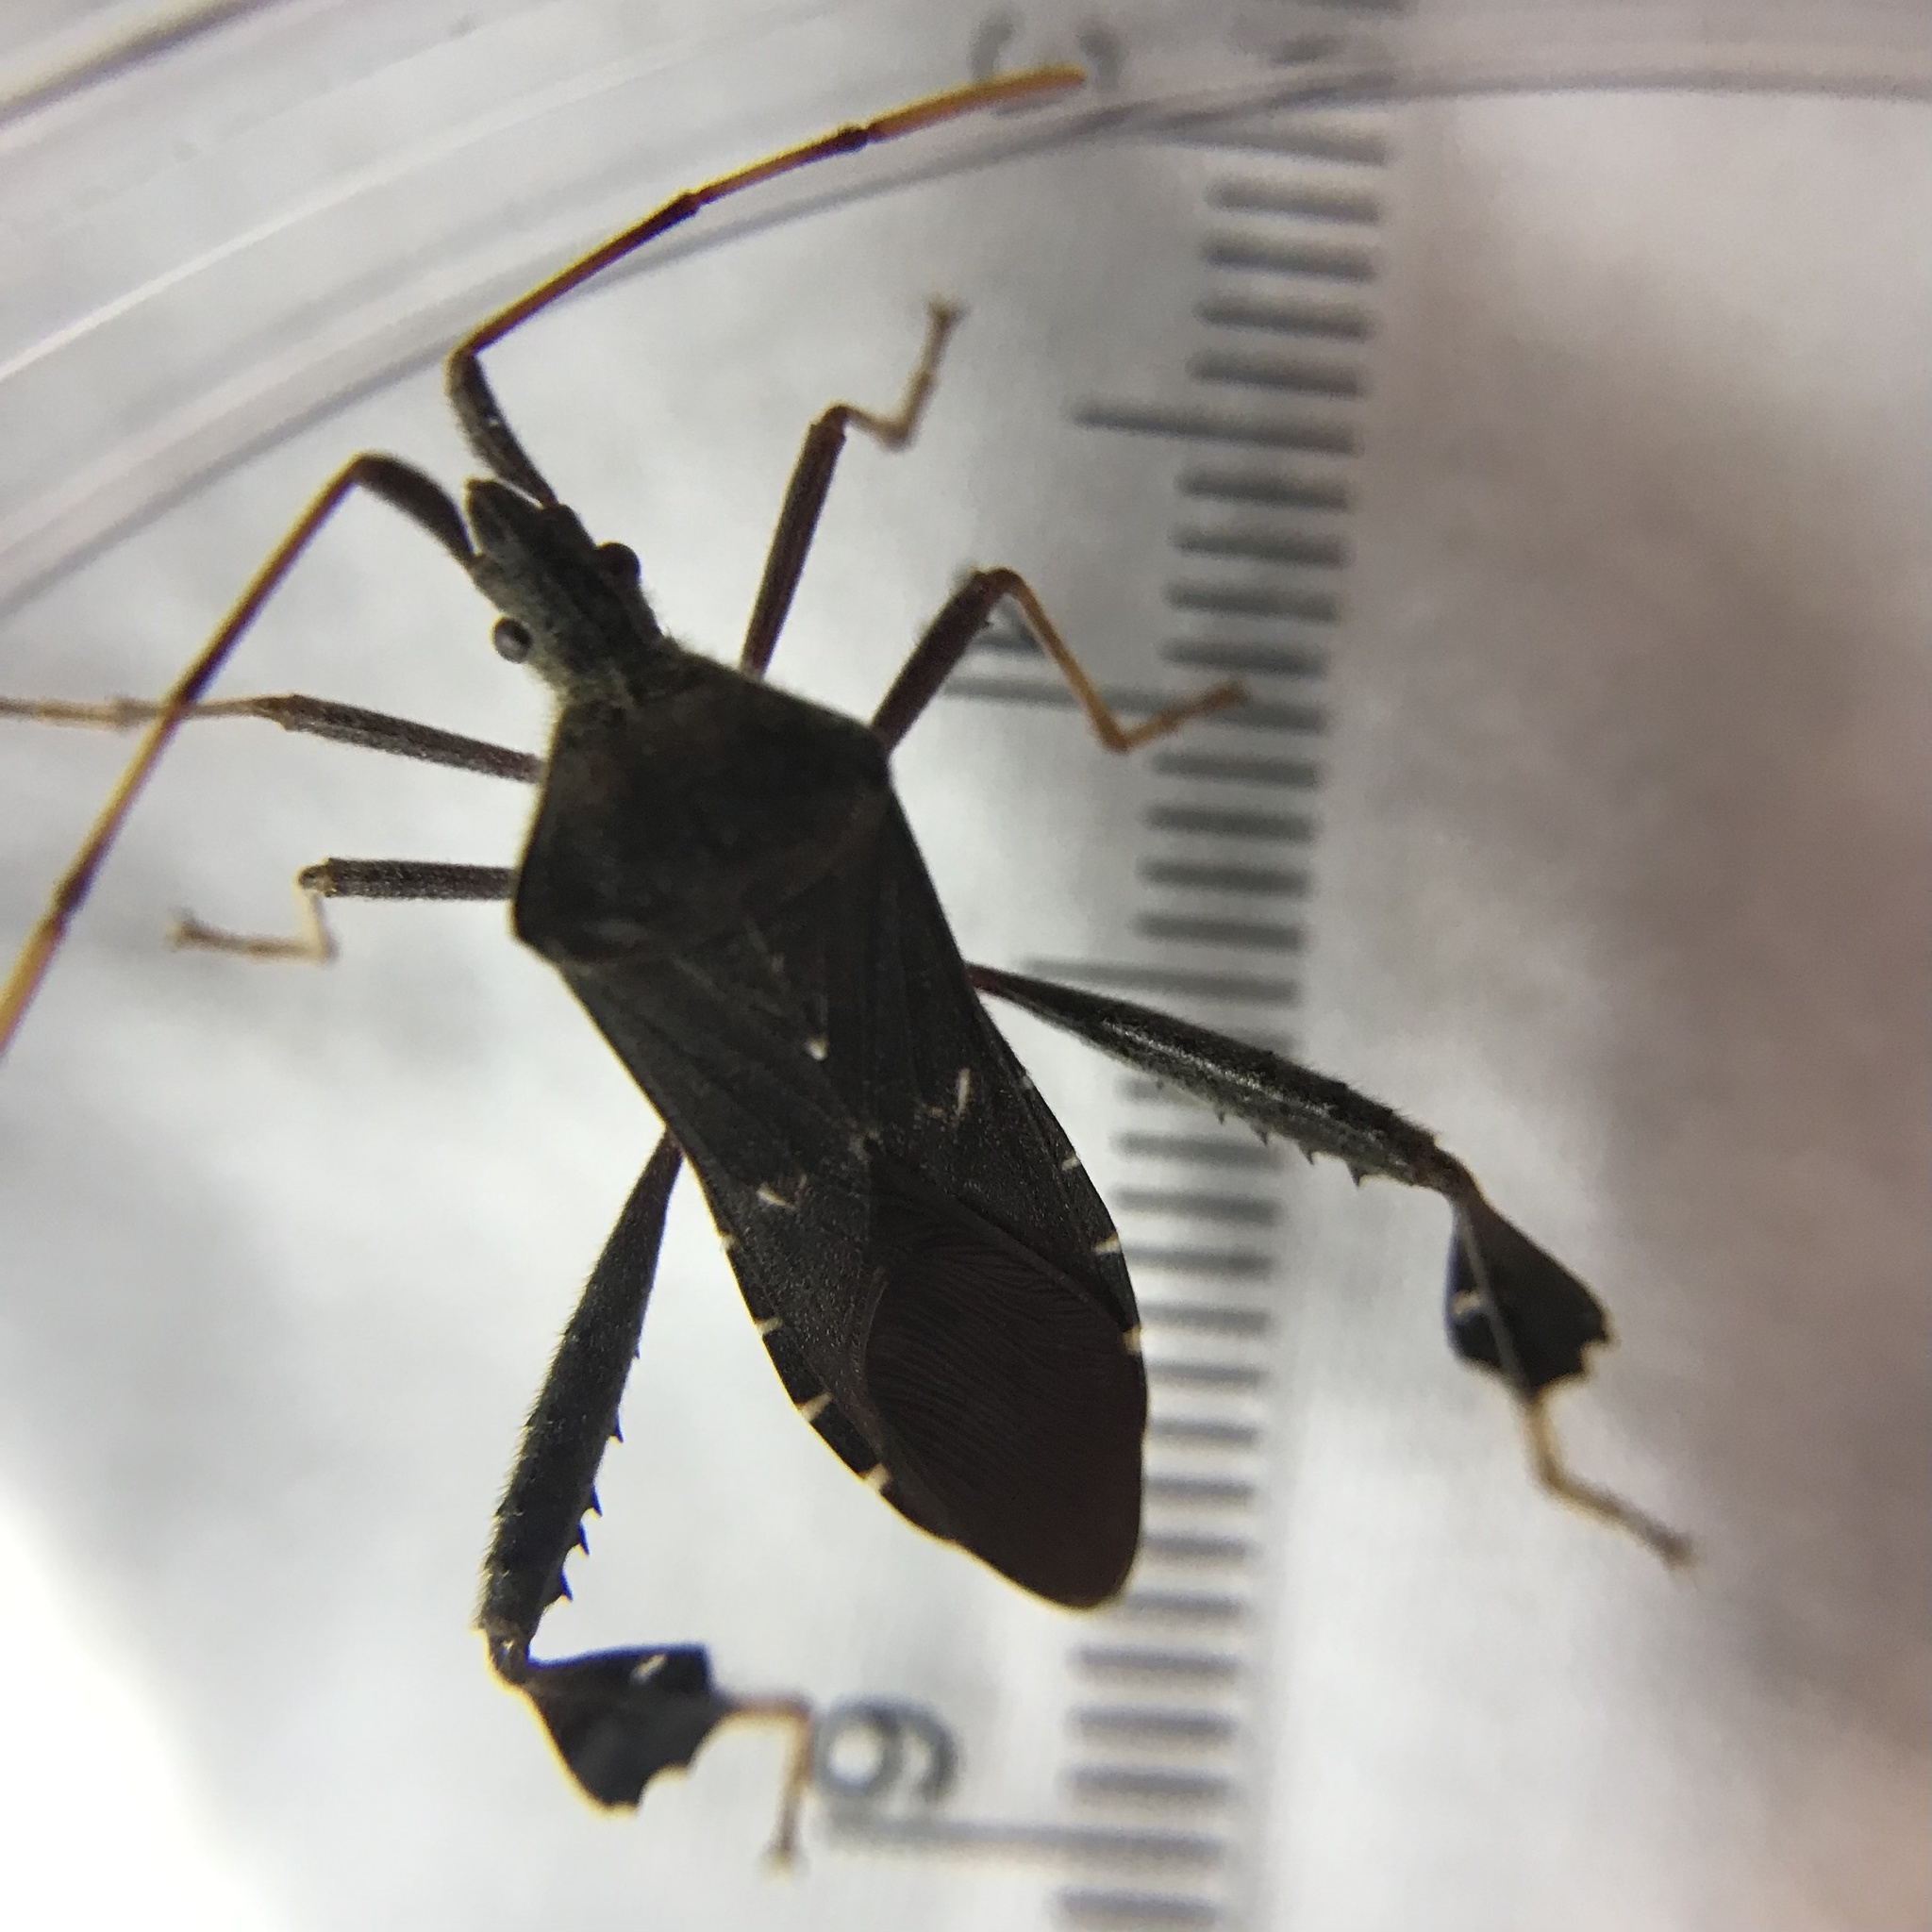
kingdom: Animalia
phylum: Arthropoda
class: Insecta
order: Hemiptera
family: Coreidae
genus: Leptoglossus
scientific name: Leptoglossus oppositus
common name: Northern leaf-footed bug
